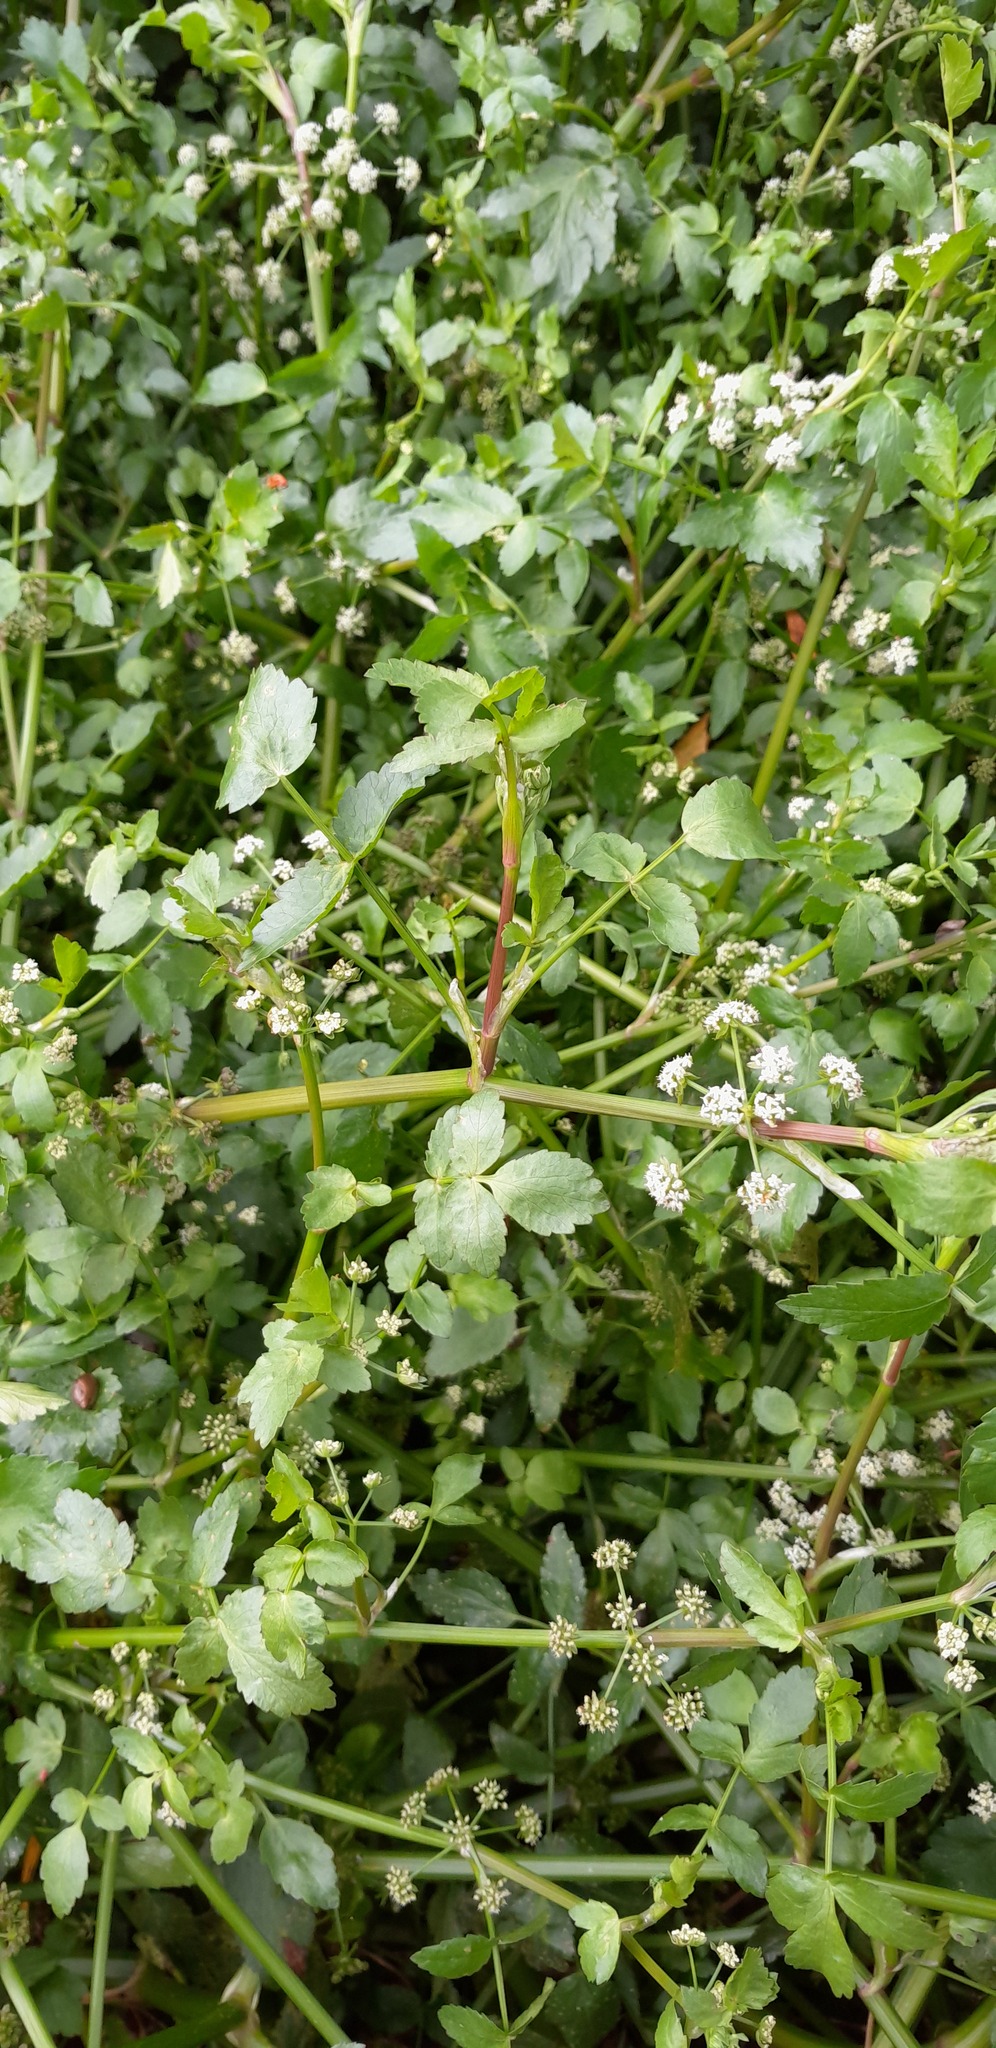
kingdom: Plantae
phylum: Tracheophyta
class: Magnoliopsida
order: Apiales
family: Apiaceae
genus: Helosciadium
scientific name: Helosciadium nodiflorum
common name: Fool's-watercress
